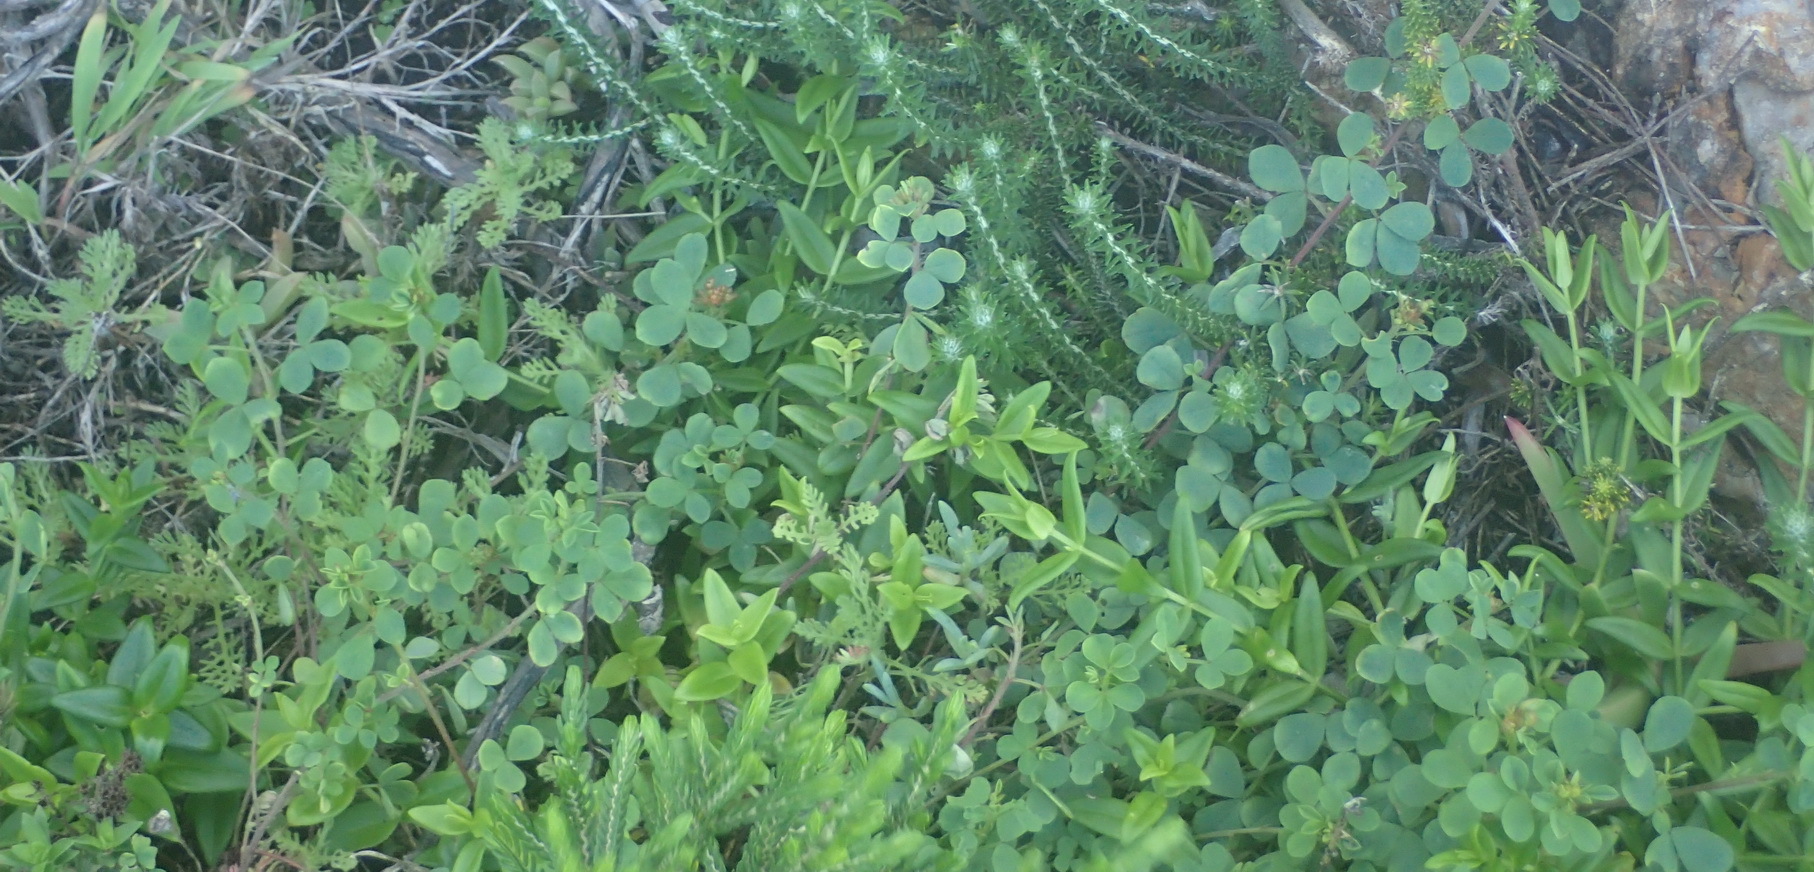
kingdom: Plantae
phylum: Tracheophyta
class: Magnoliopsida
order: Fabales
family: Fabaceae
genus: Indigofera
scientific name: Indigofera erecta
